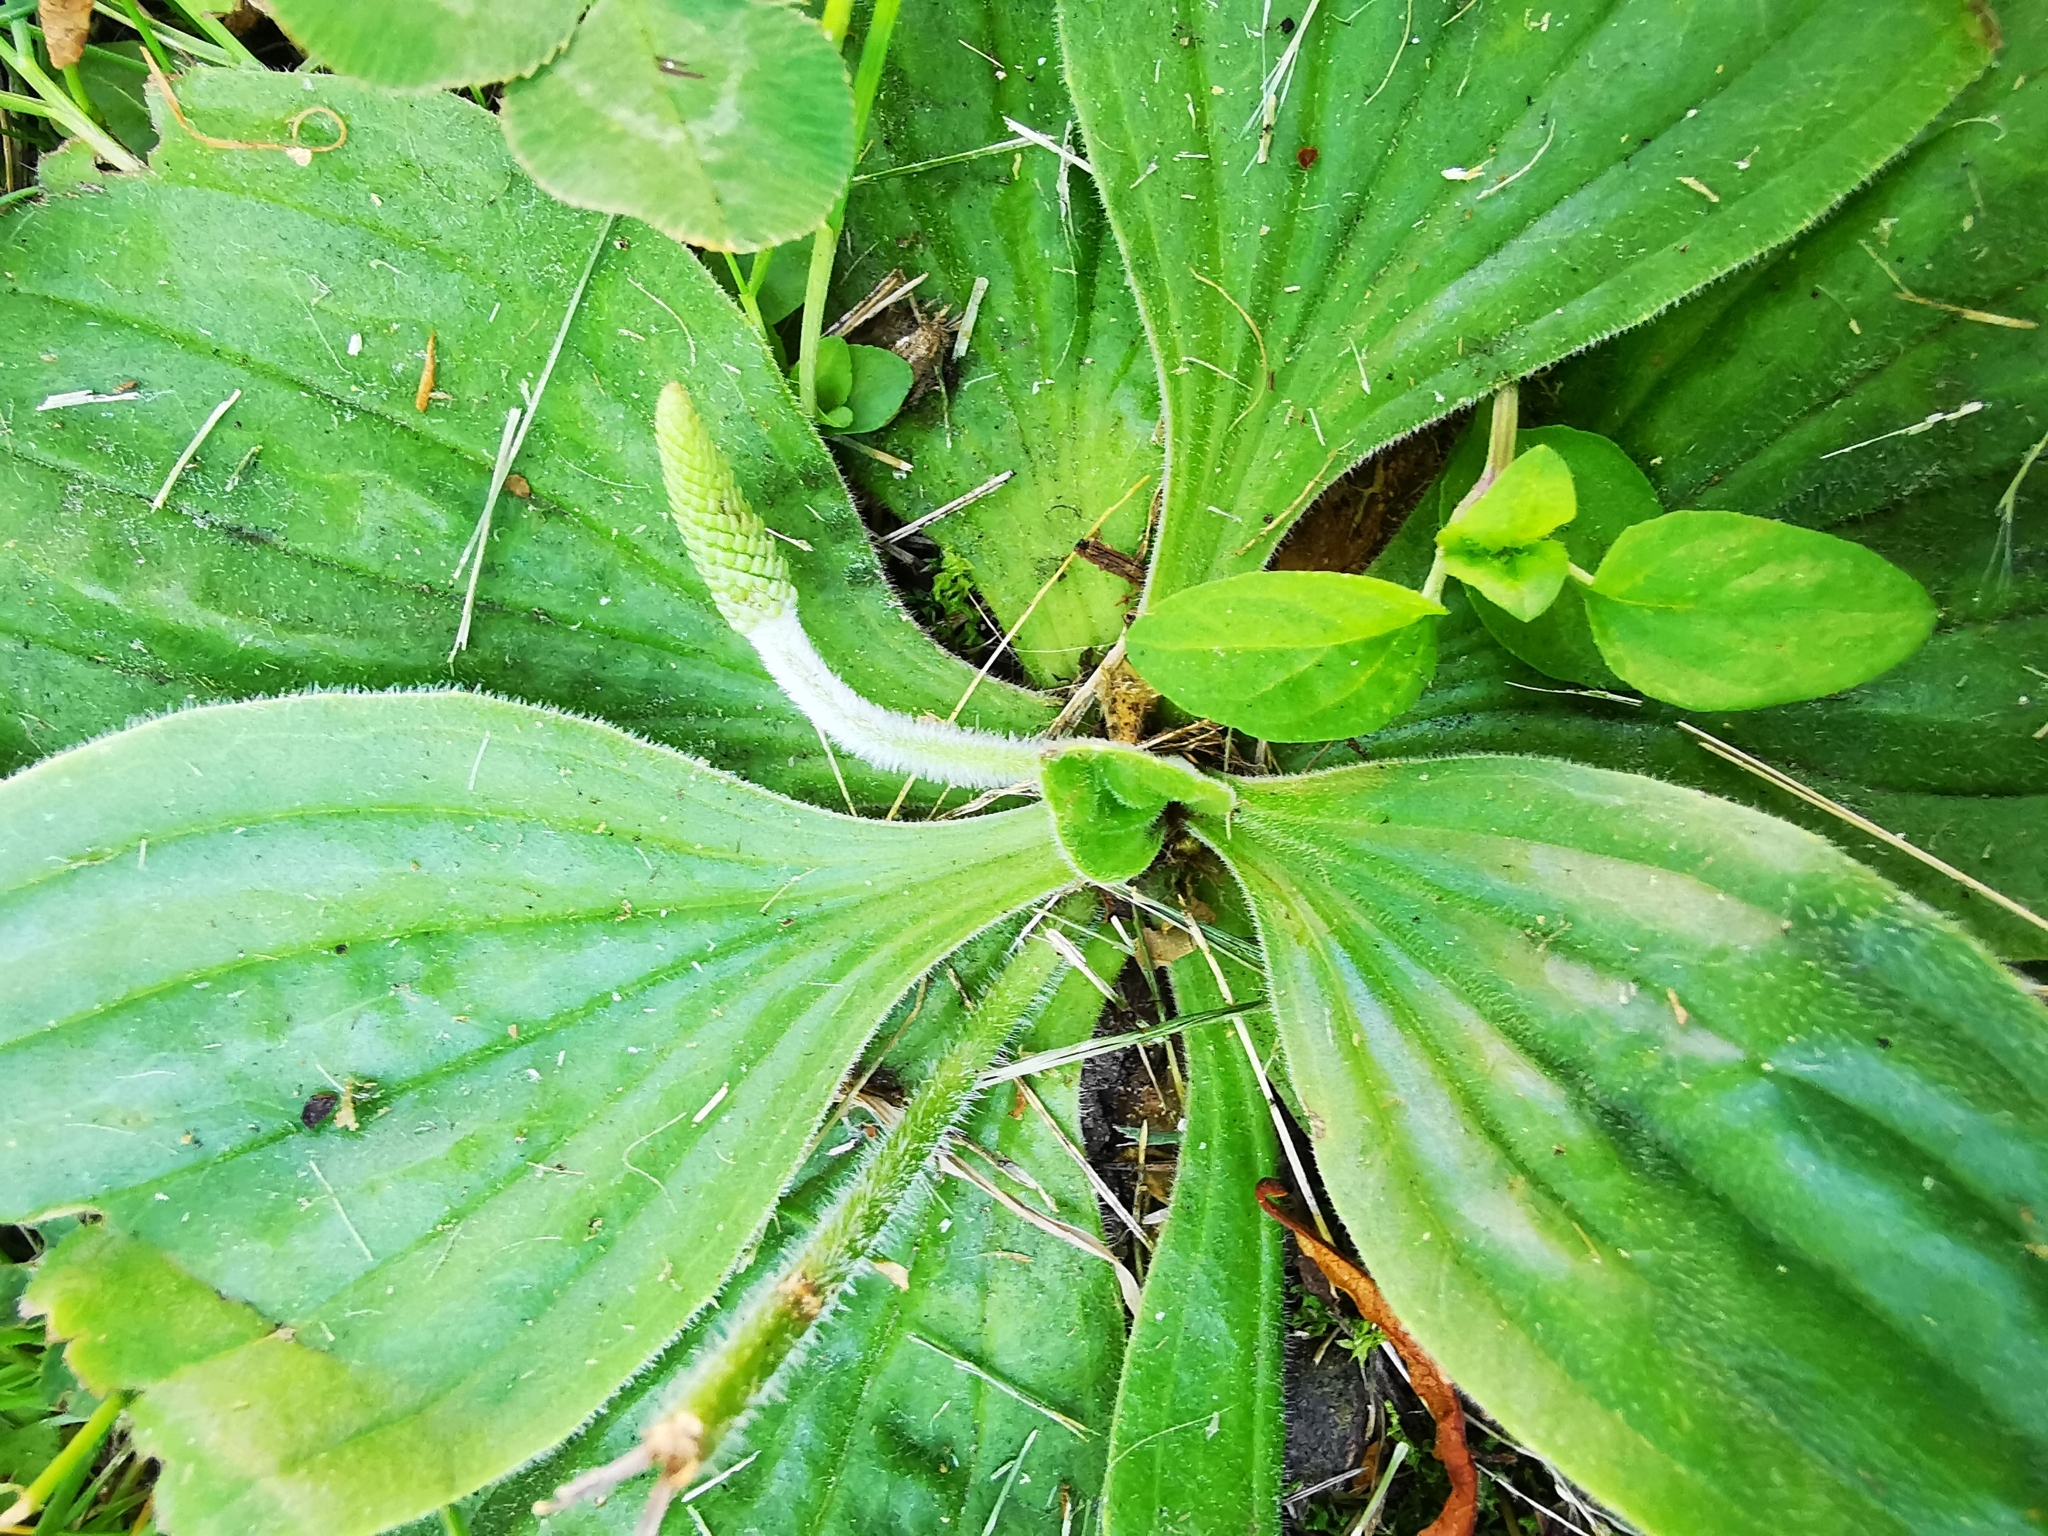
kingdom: Plantae
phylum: Tracheophyta
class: Magnoliopsida
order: Lamiales
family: Plantaginaceae
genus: Plantago
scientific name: Plantago media
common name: Hoary plantain
